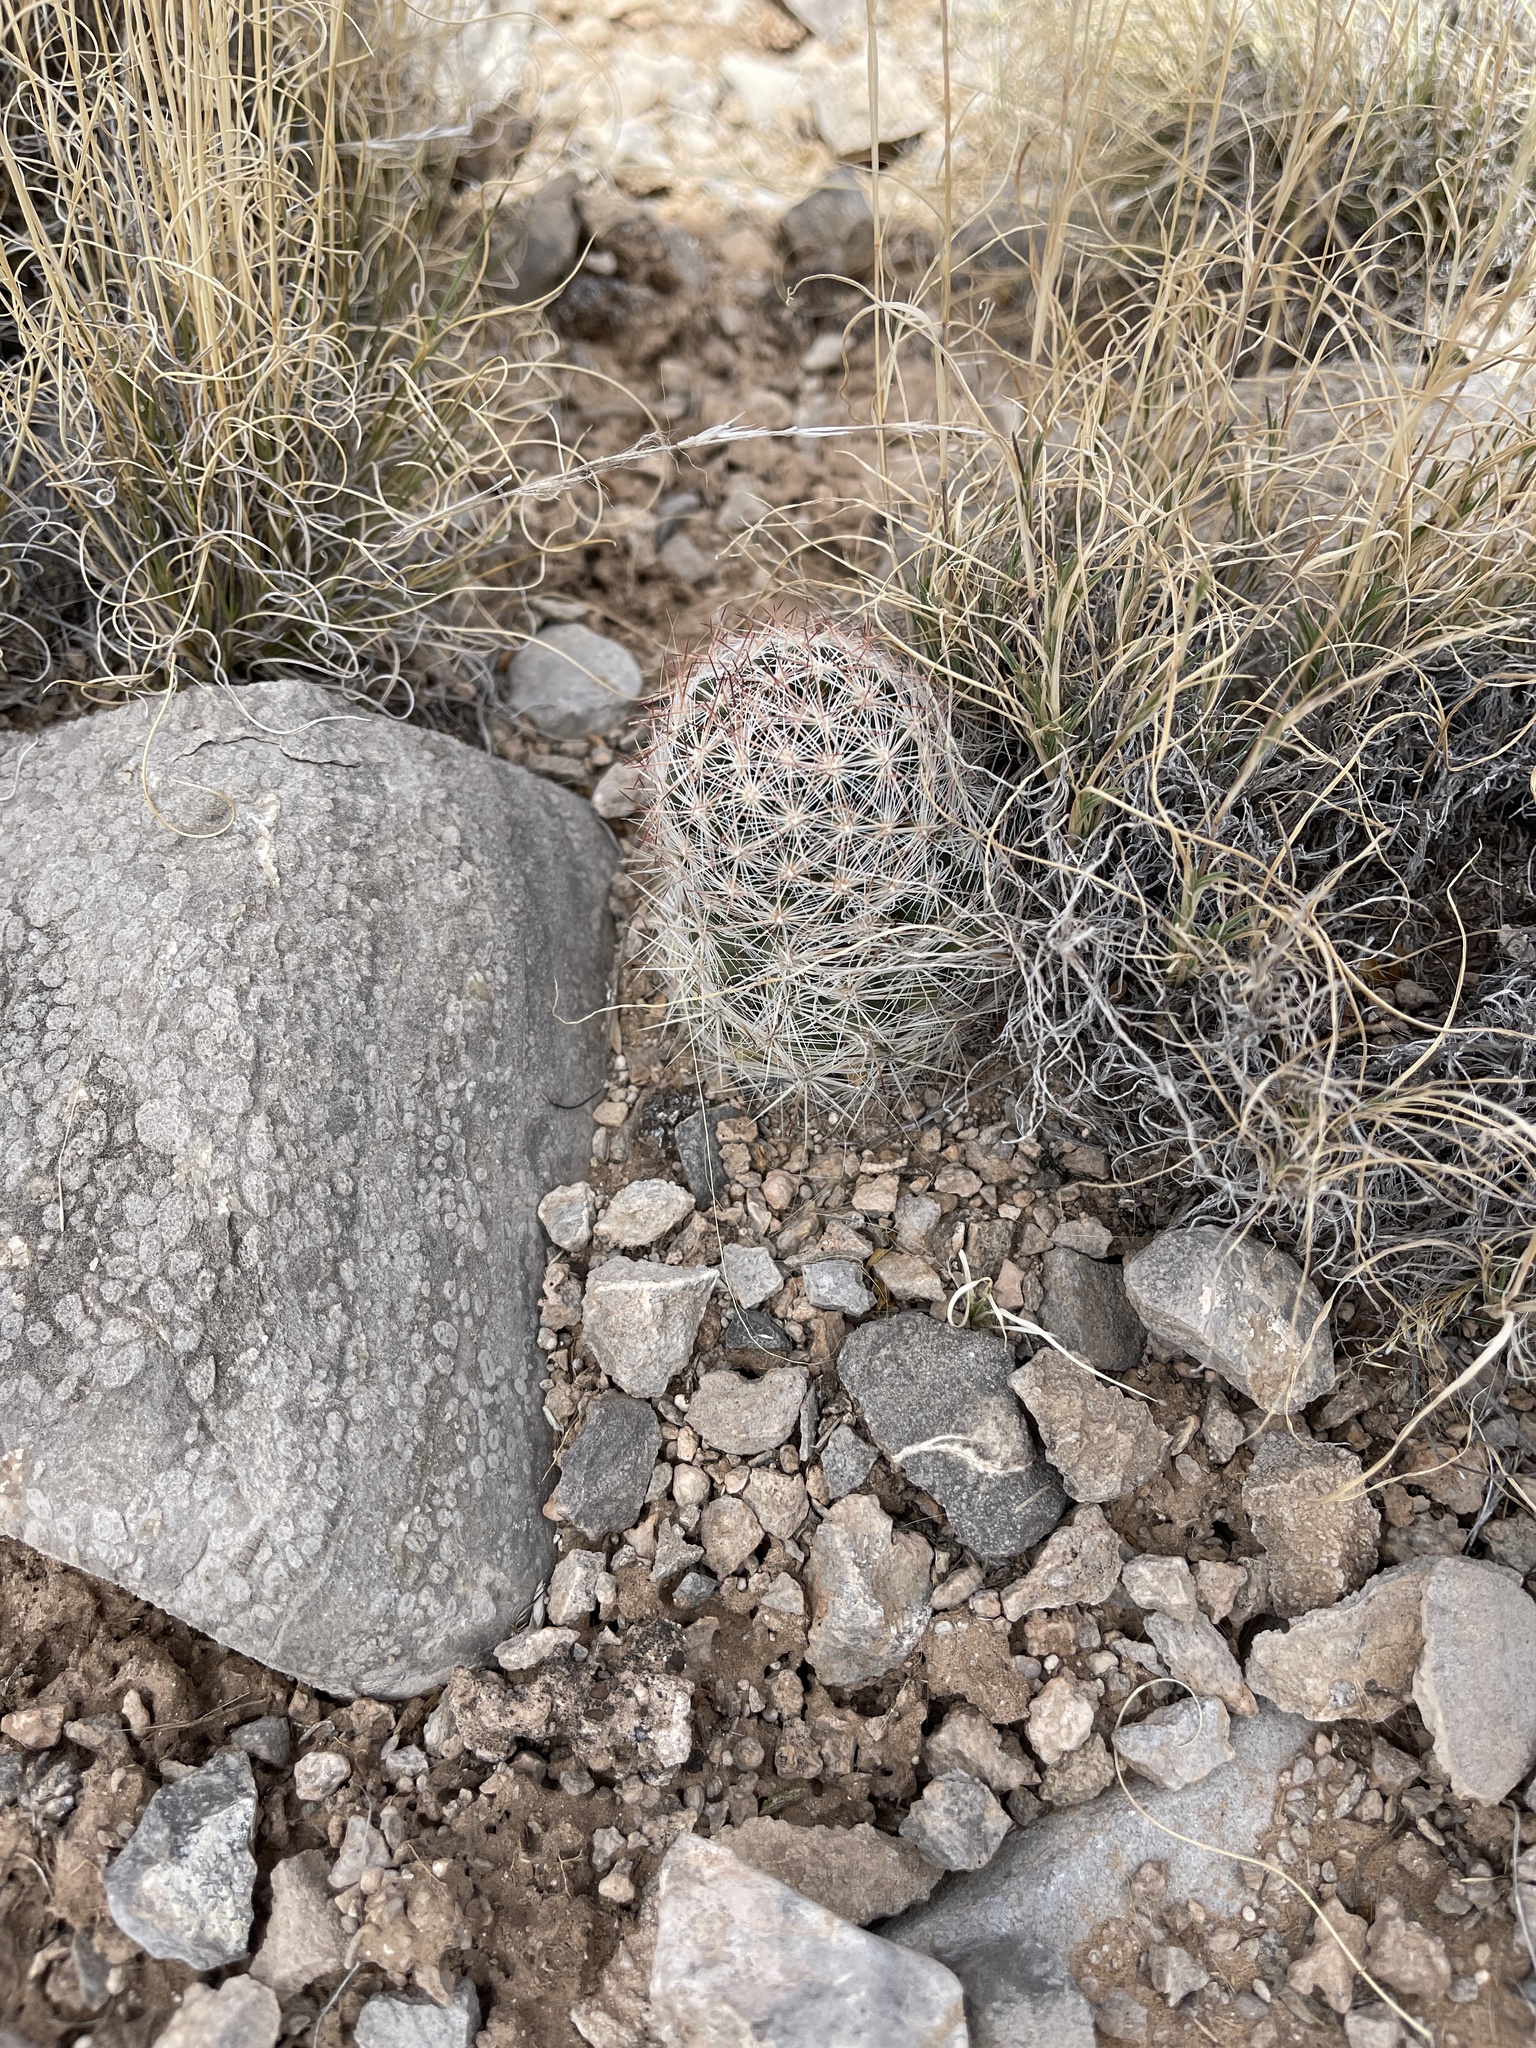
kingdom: Plantae
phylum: Tracheophyta
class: Magnoliopsida
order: Caryophyllales
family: Cactaceae
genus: Pelecyphora
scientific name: Pelecyphora vivipara
